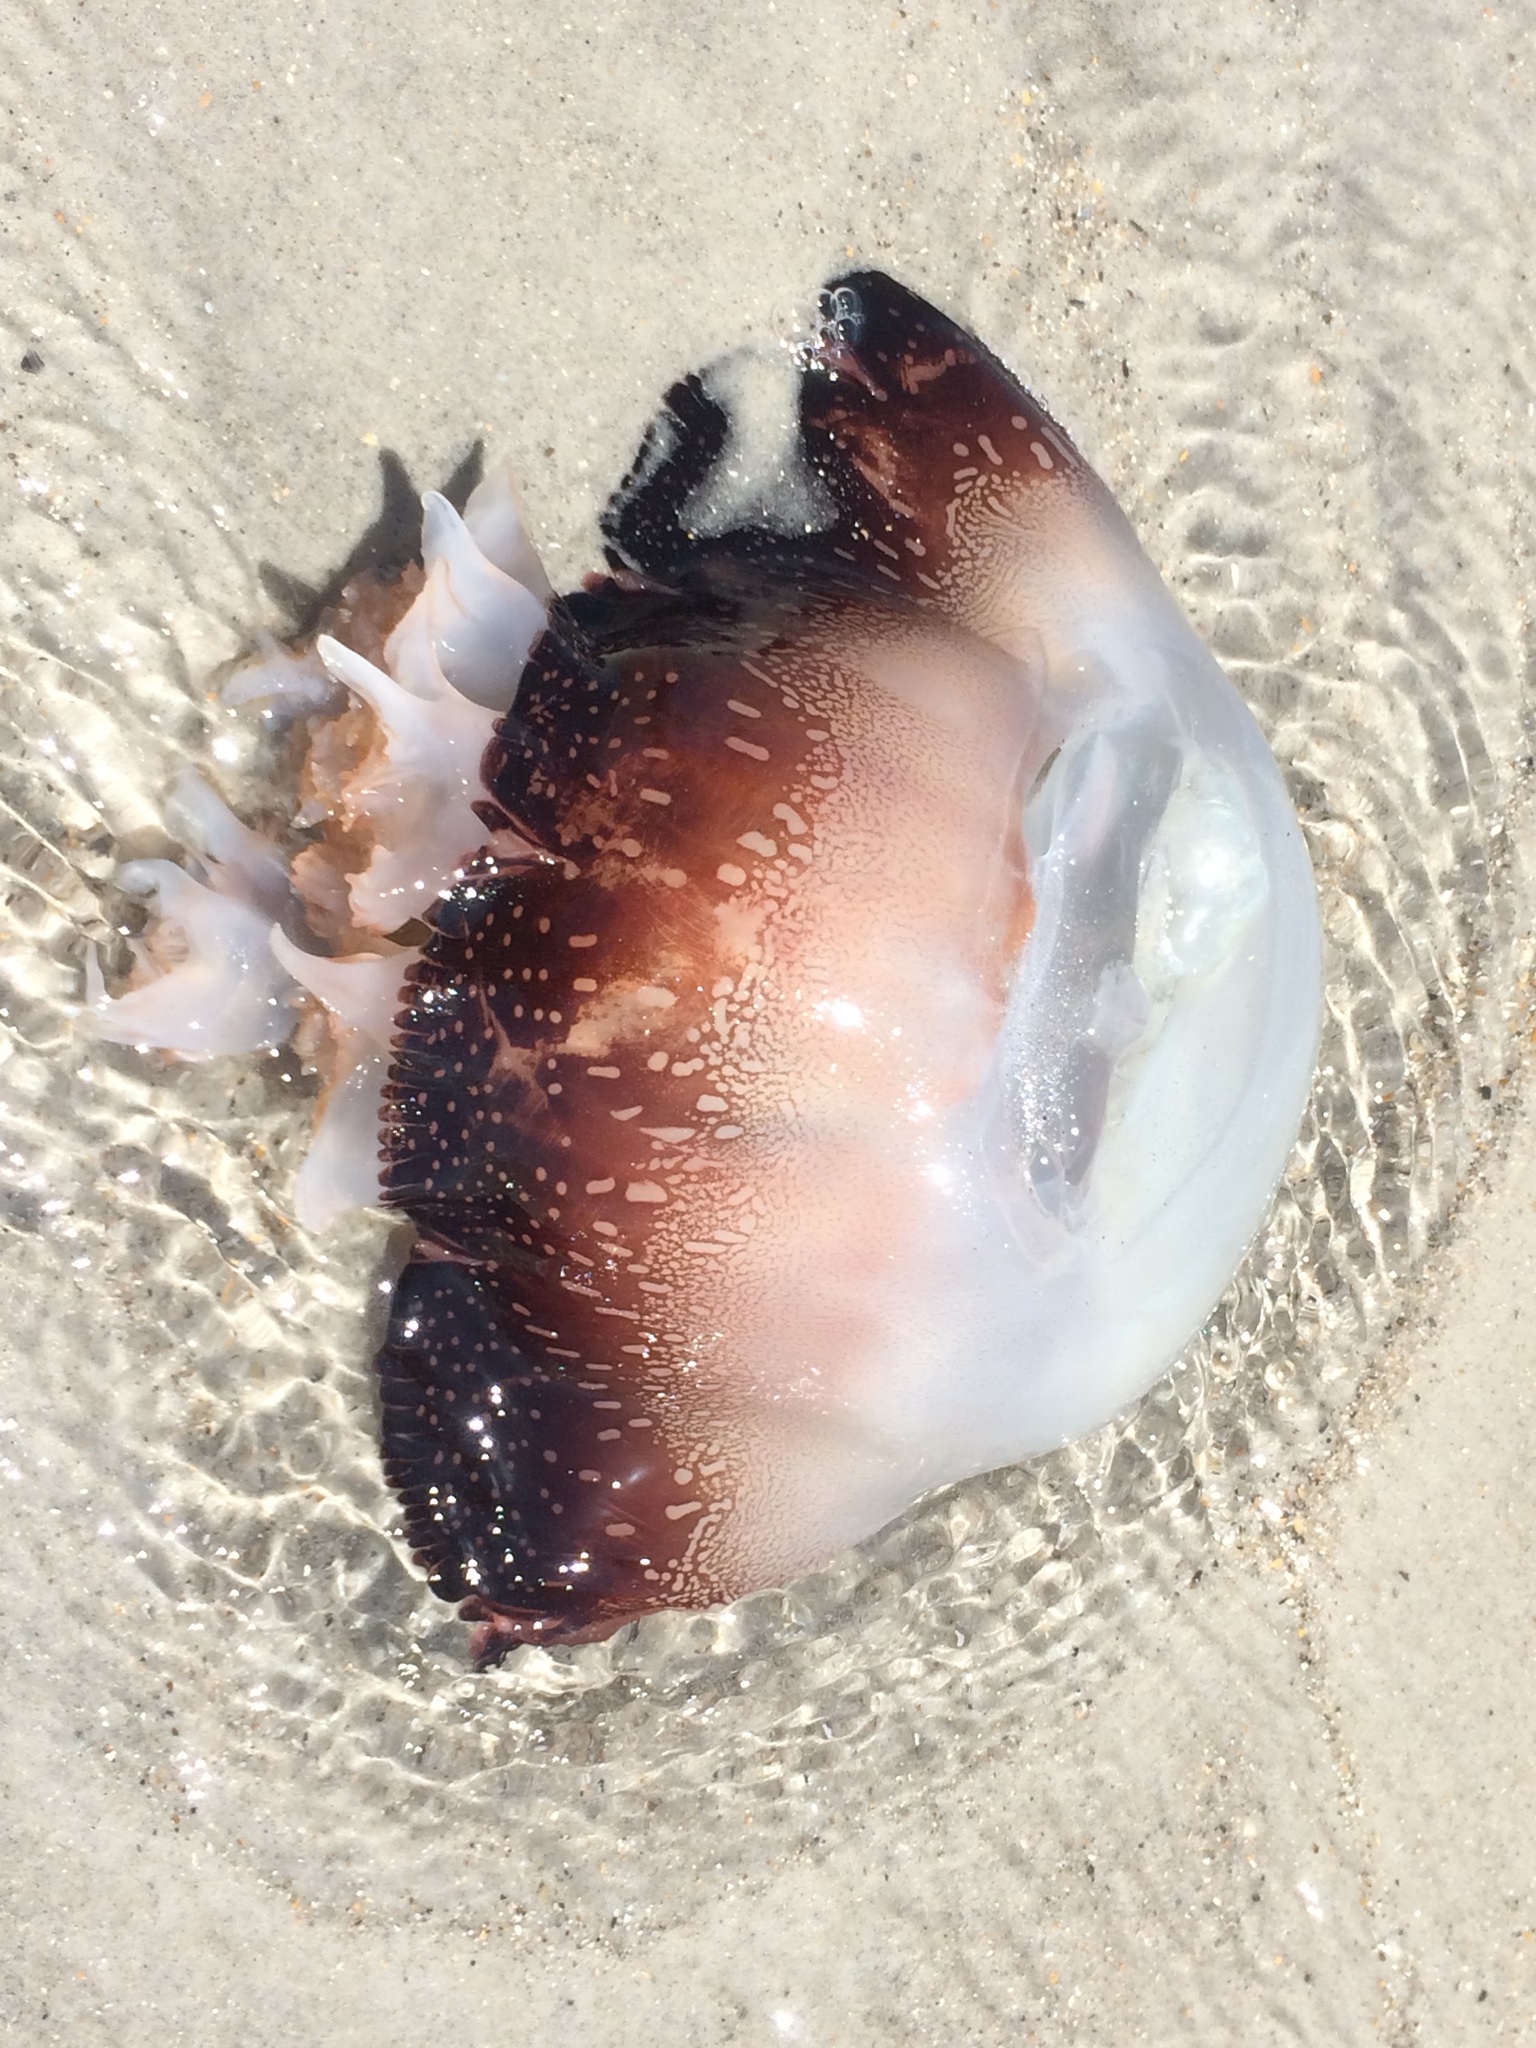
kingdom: Animalia
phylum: Cnidaria
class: Scyphozoa
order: Rhizostomeae
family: Stomolophidae
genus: Stomolophus
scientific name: Stomolophus meleagris
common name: Cabbagehead
